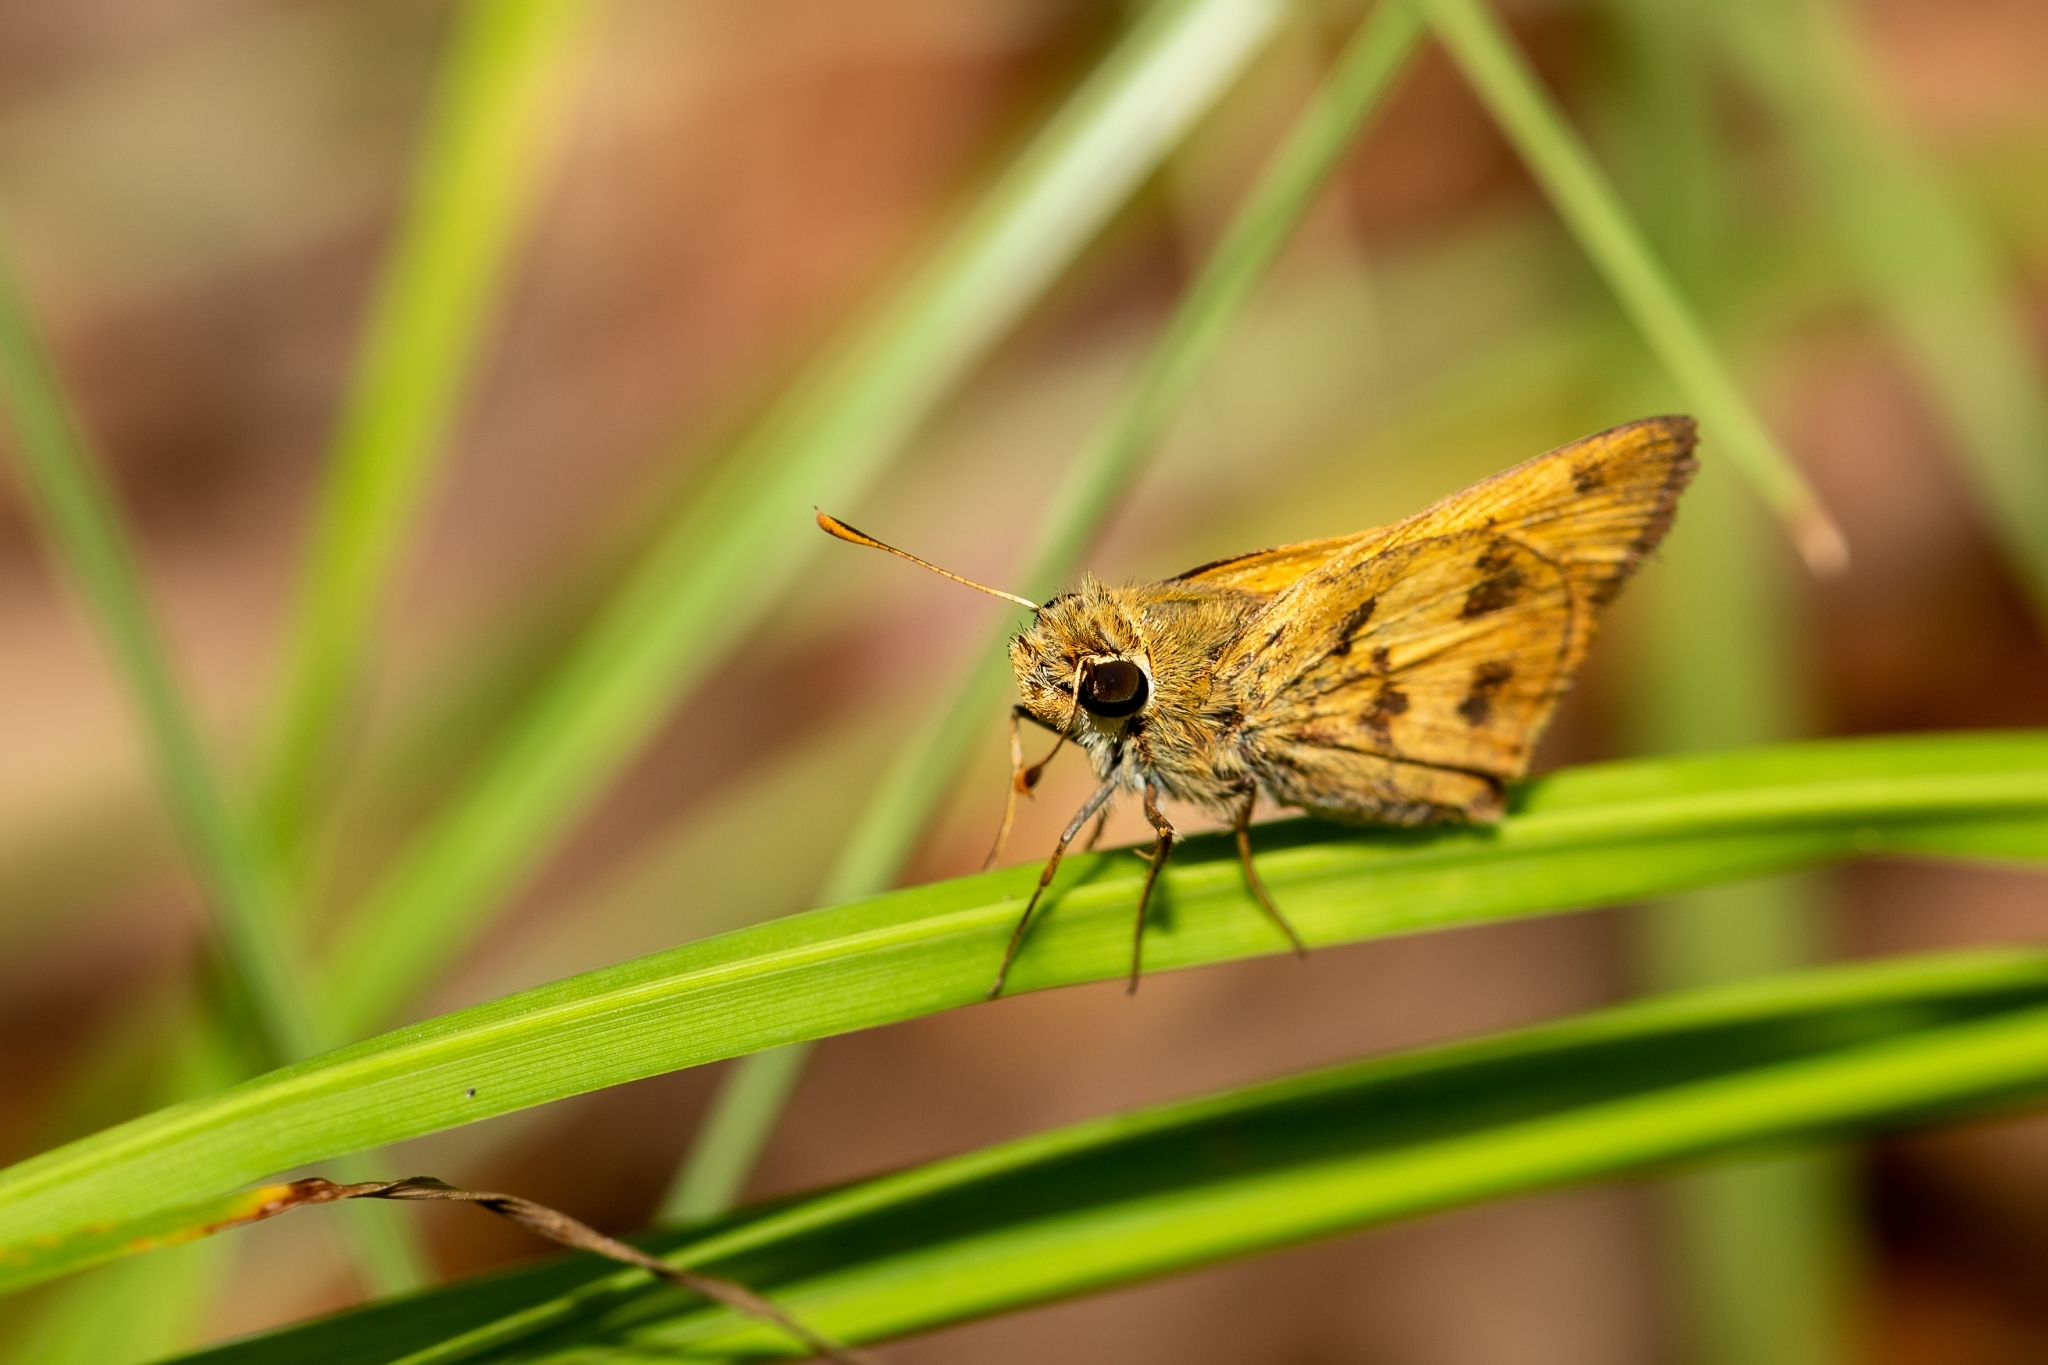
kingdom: Animalia
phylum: Arthropoda
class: Insecta
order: Lepidoptera
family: Hesperiidae
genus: Polites
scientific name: Polites vibex
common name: Whirlabout
